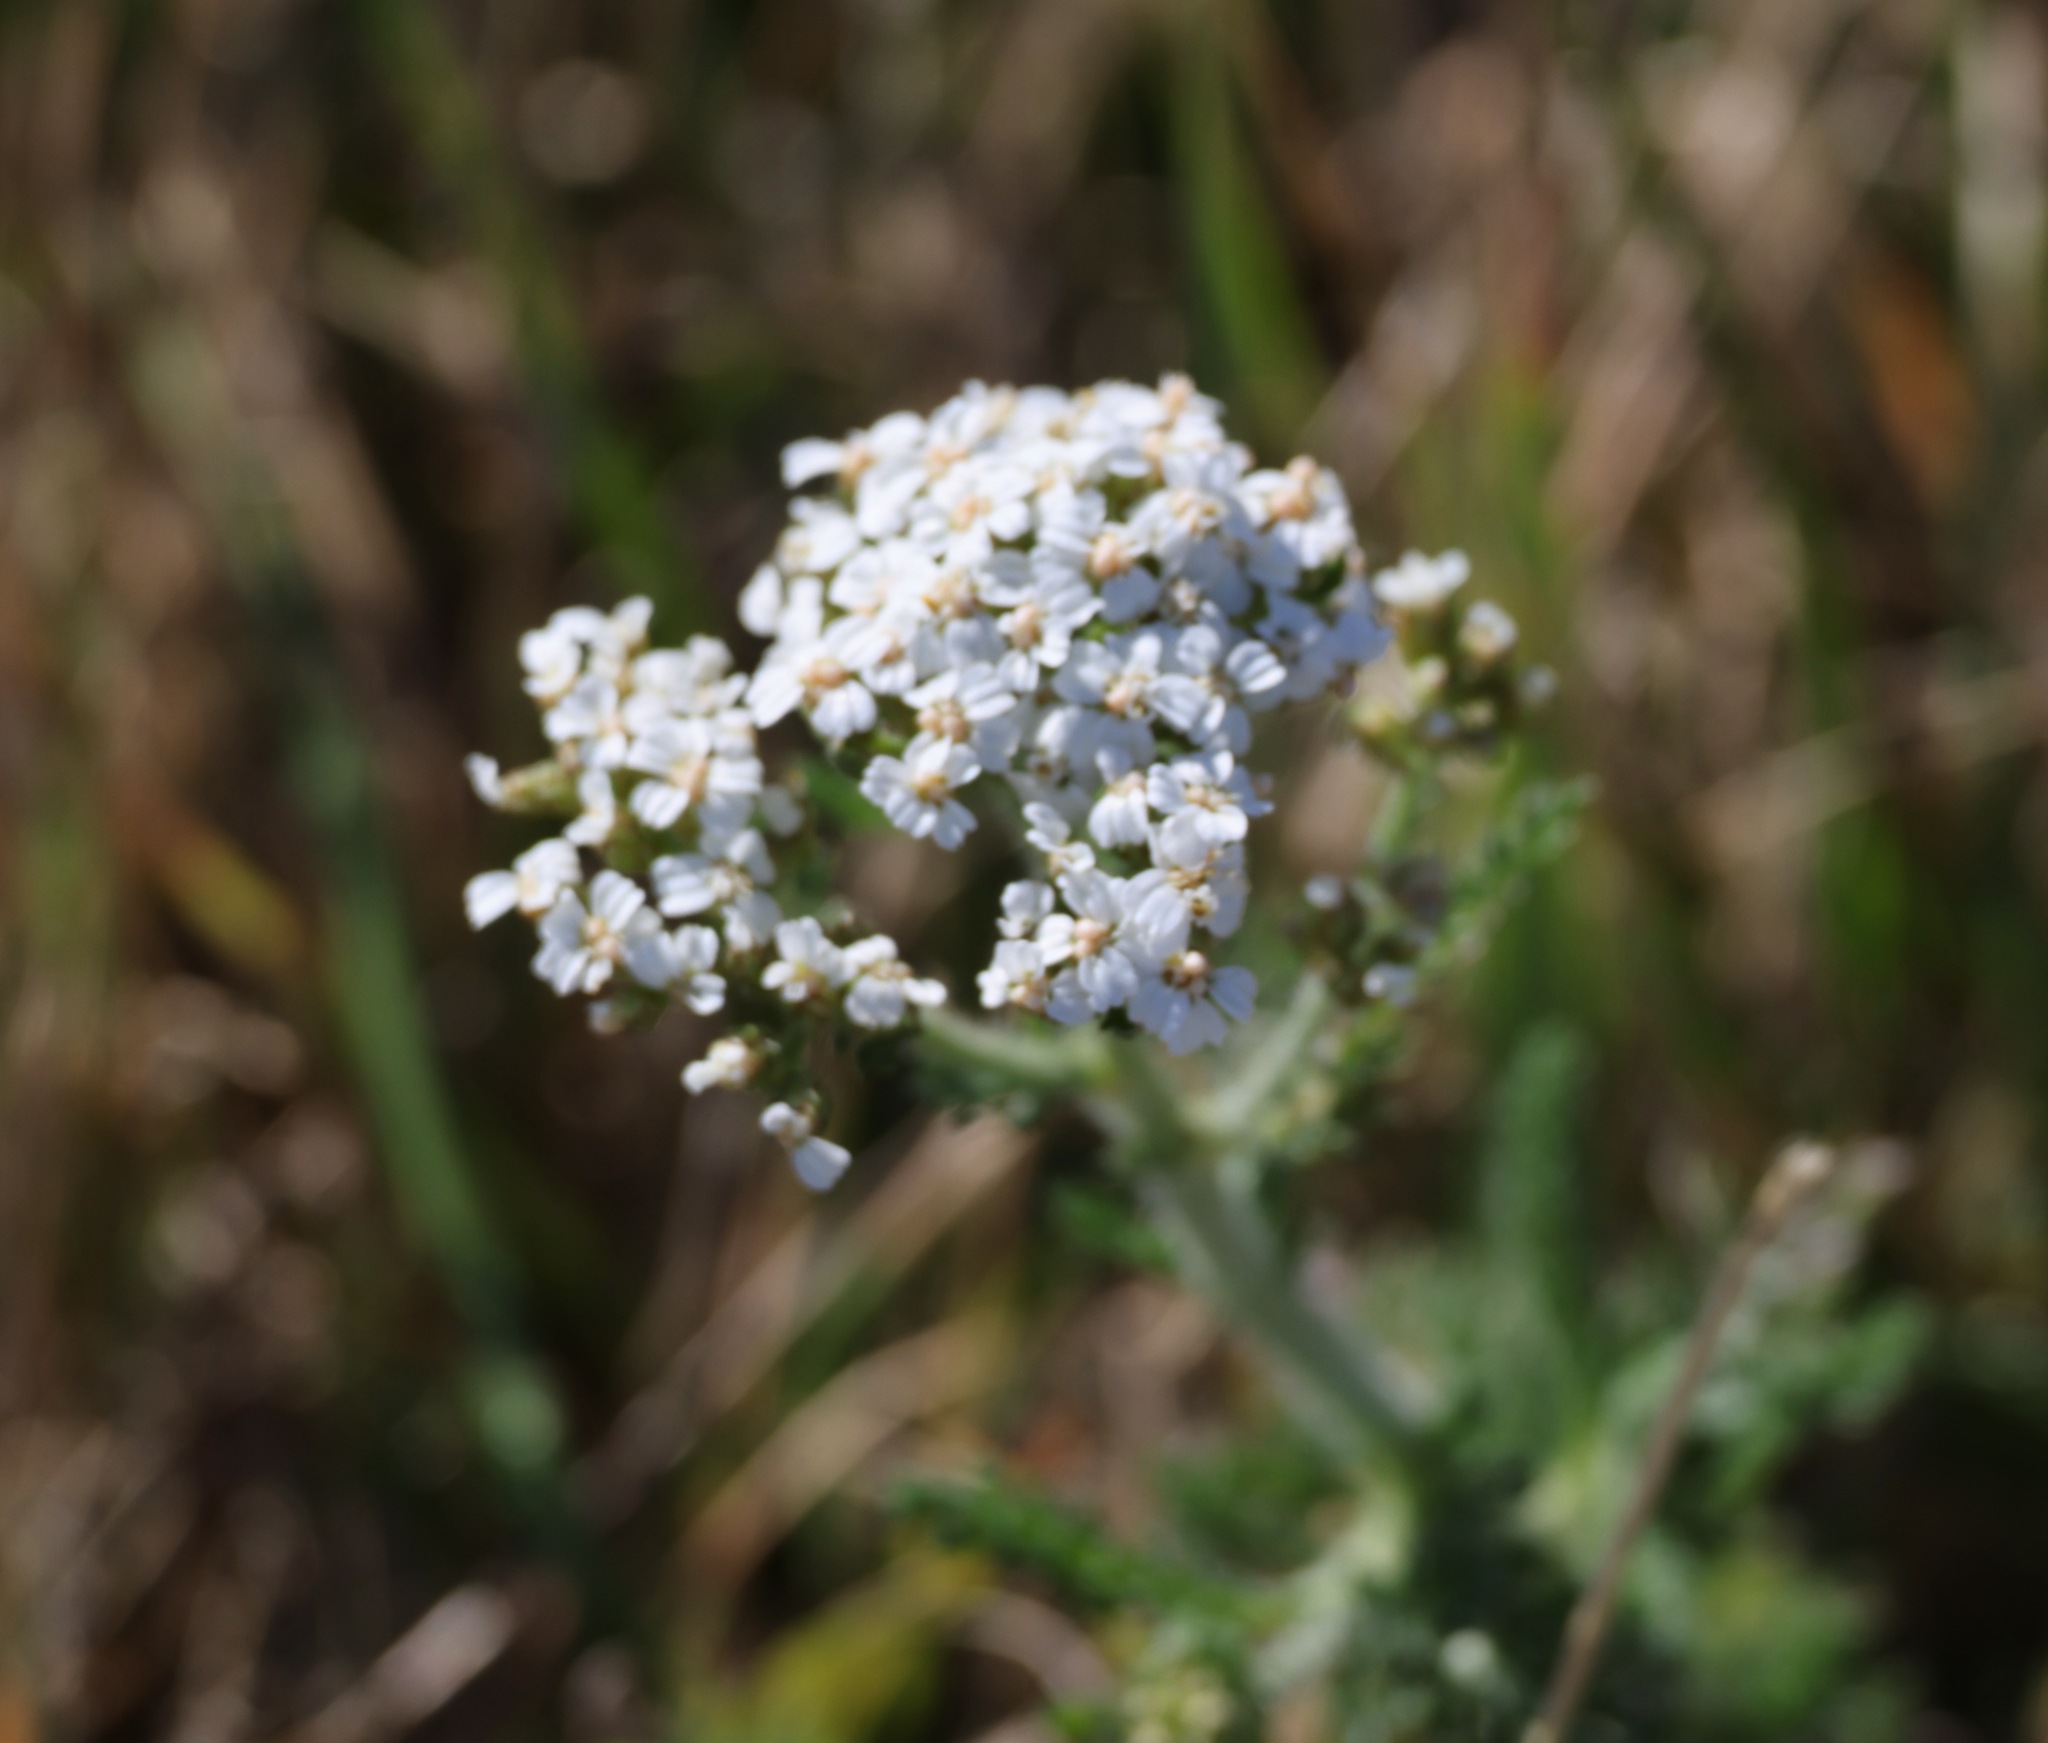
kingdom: Plantae
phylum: Tracheophyta
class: Magnoliopsida
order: Asterales
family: Asteraceae
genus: Achillea
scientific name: Achillea millefolium
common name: Yarrow
